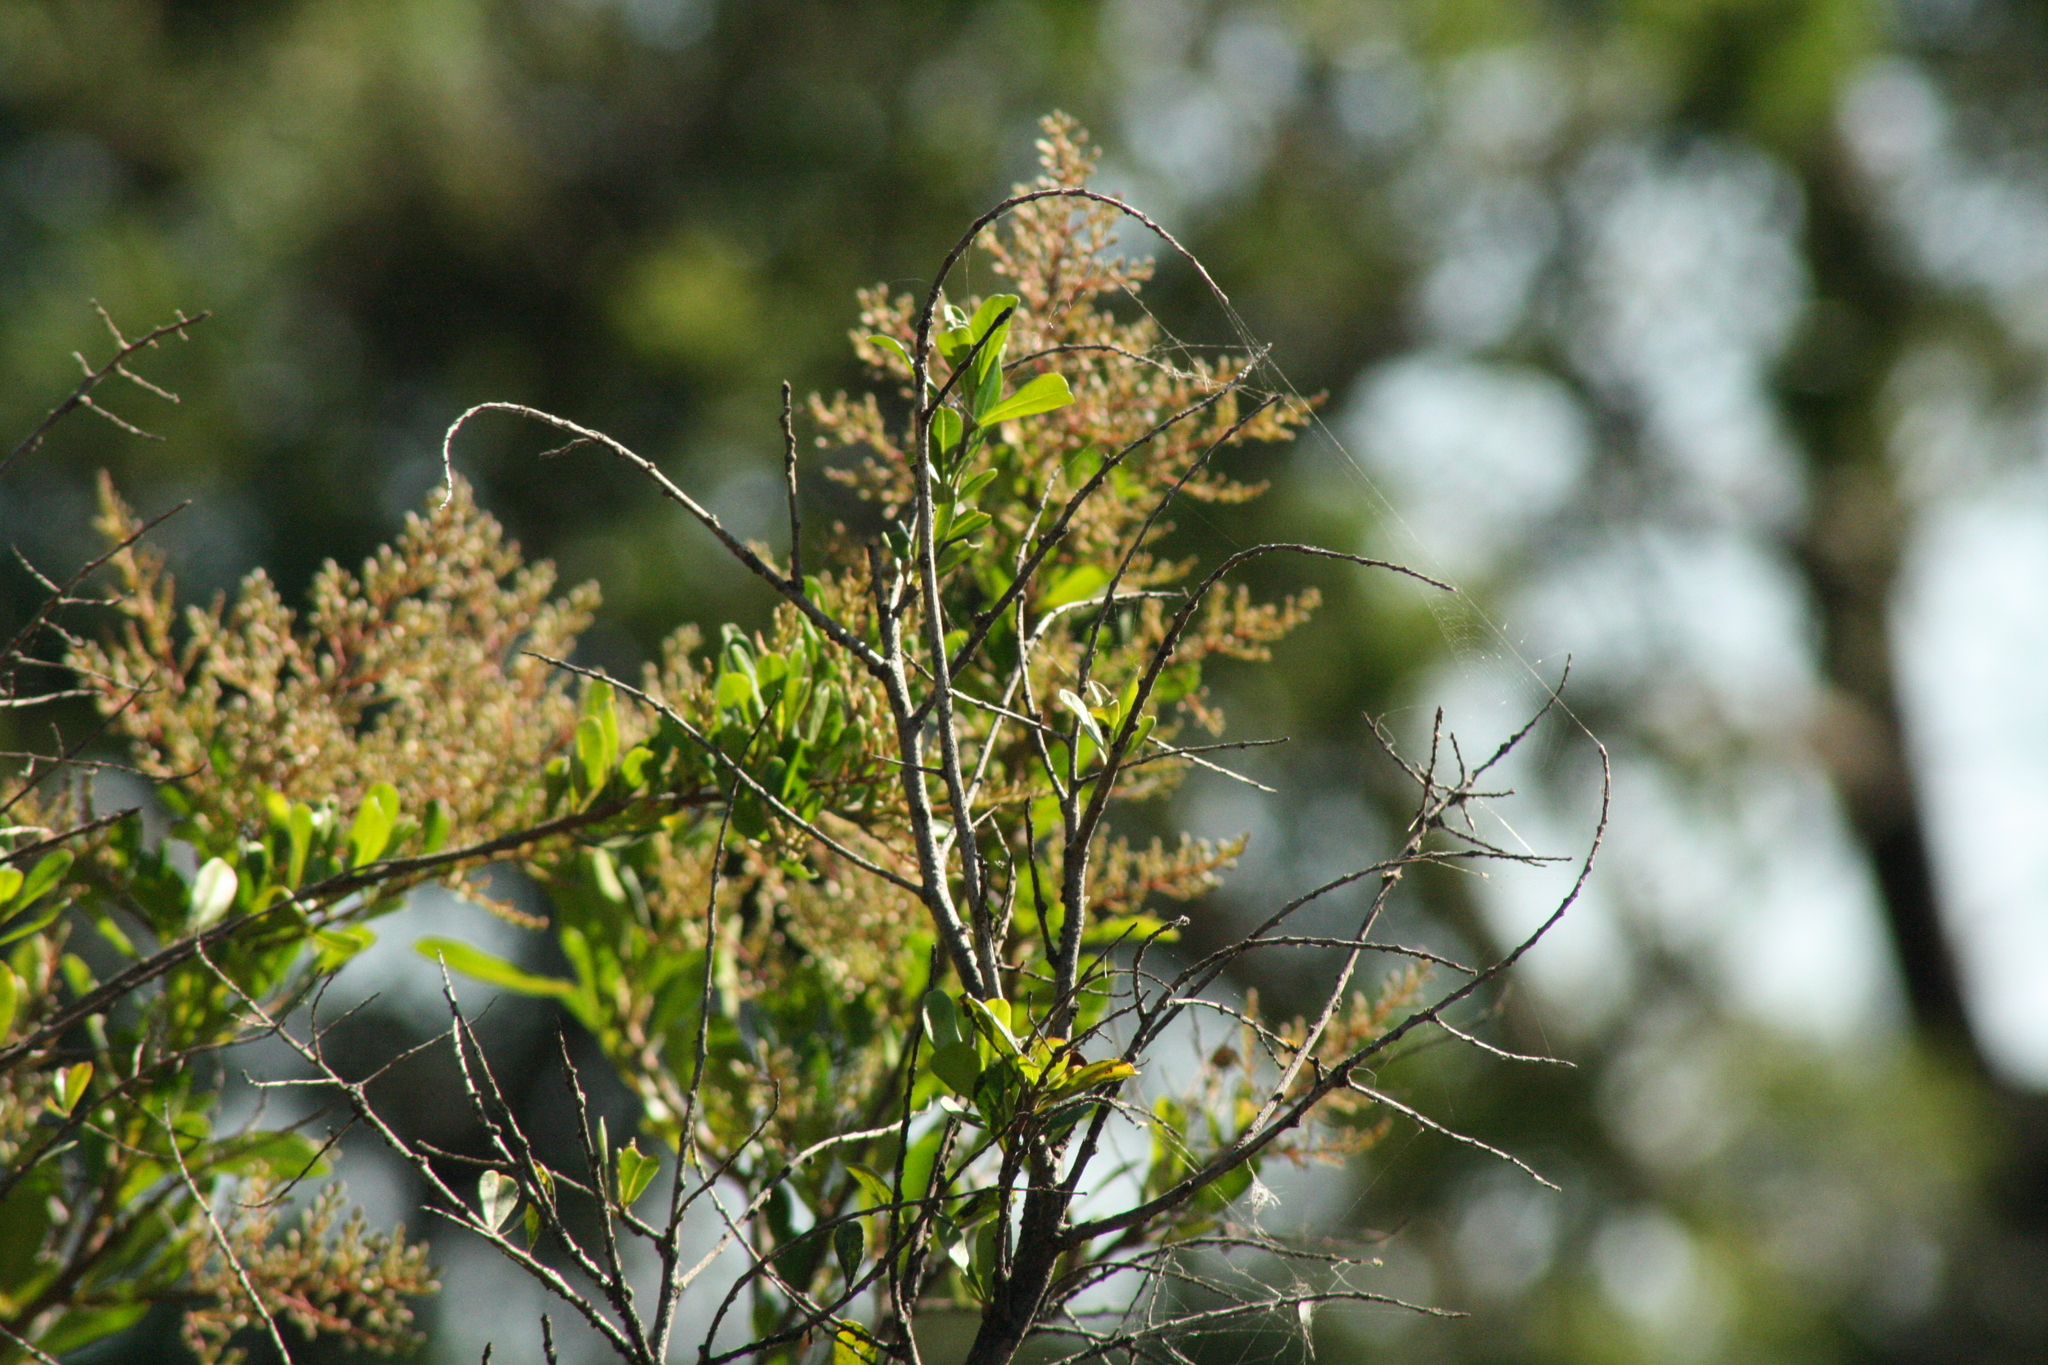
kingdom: Plantae
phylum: Tracheophyta
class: Magnoliopsida
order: Apiales
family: Pittosporaceae
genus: Bursaria
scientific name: Bursaria spinosa
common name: Australian blackthorn
